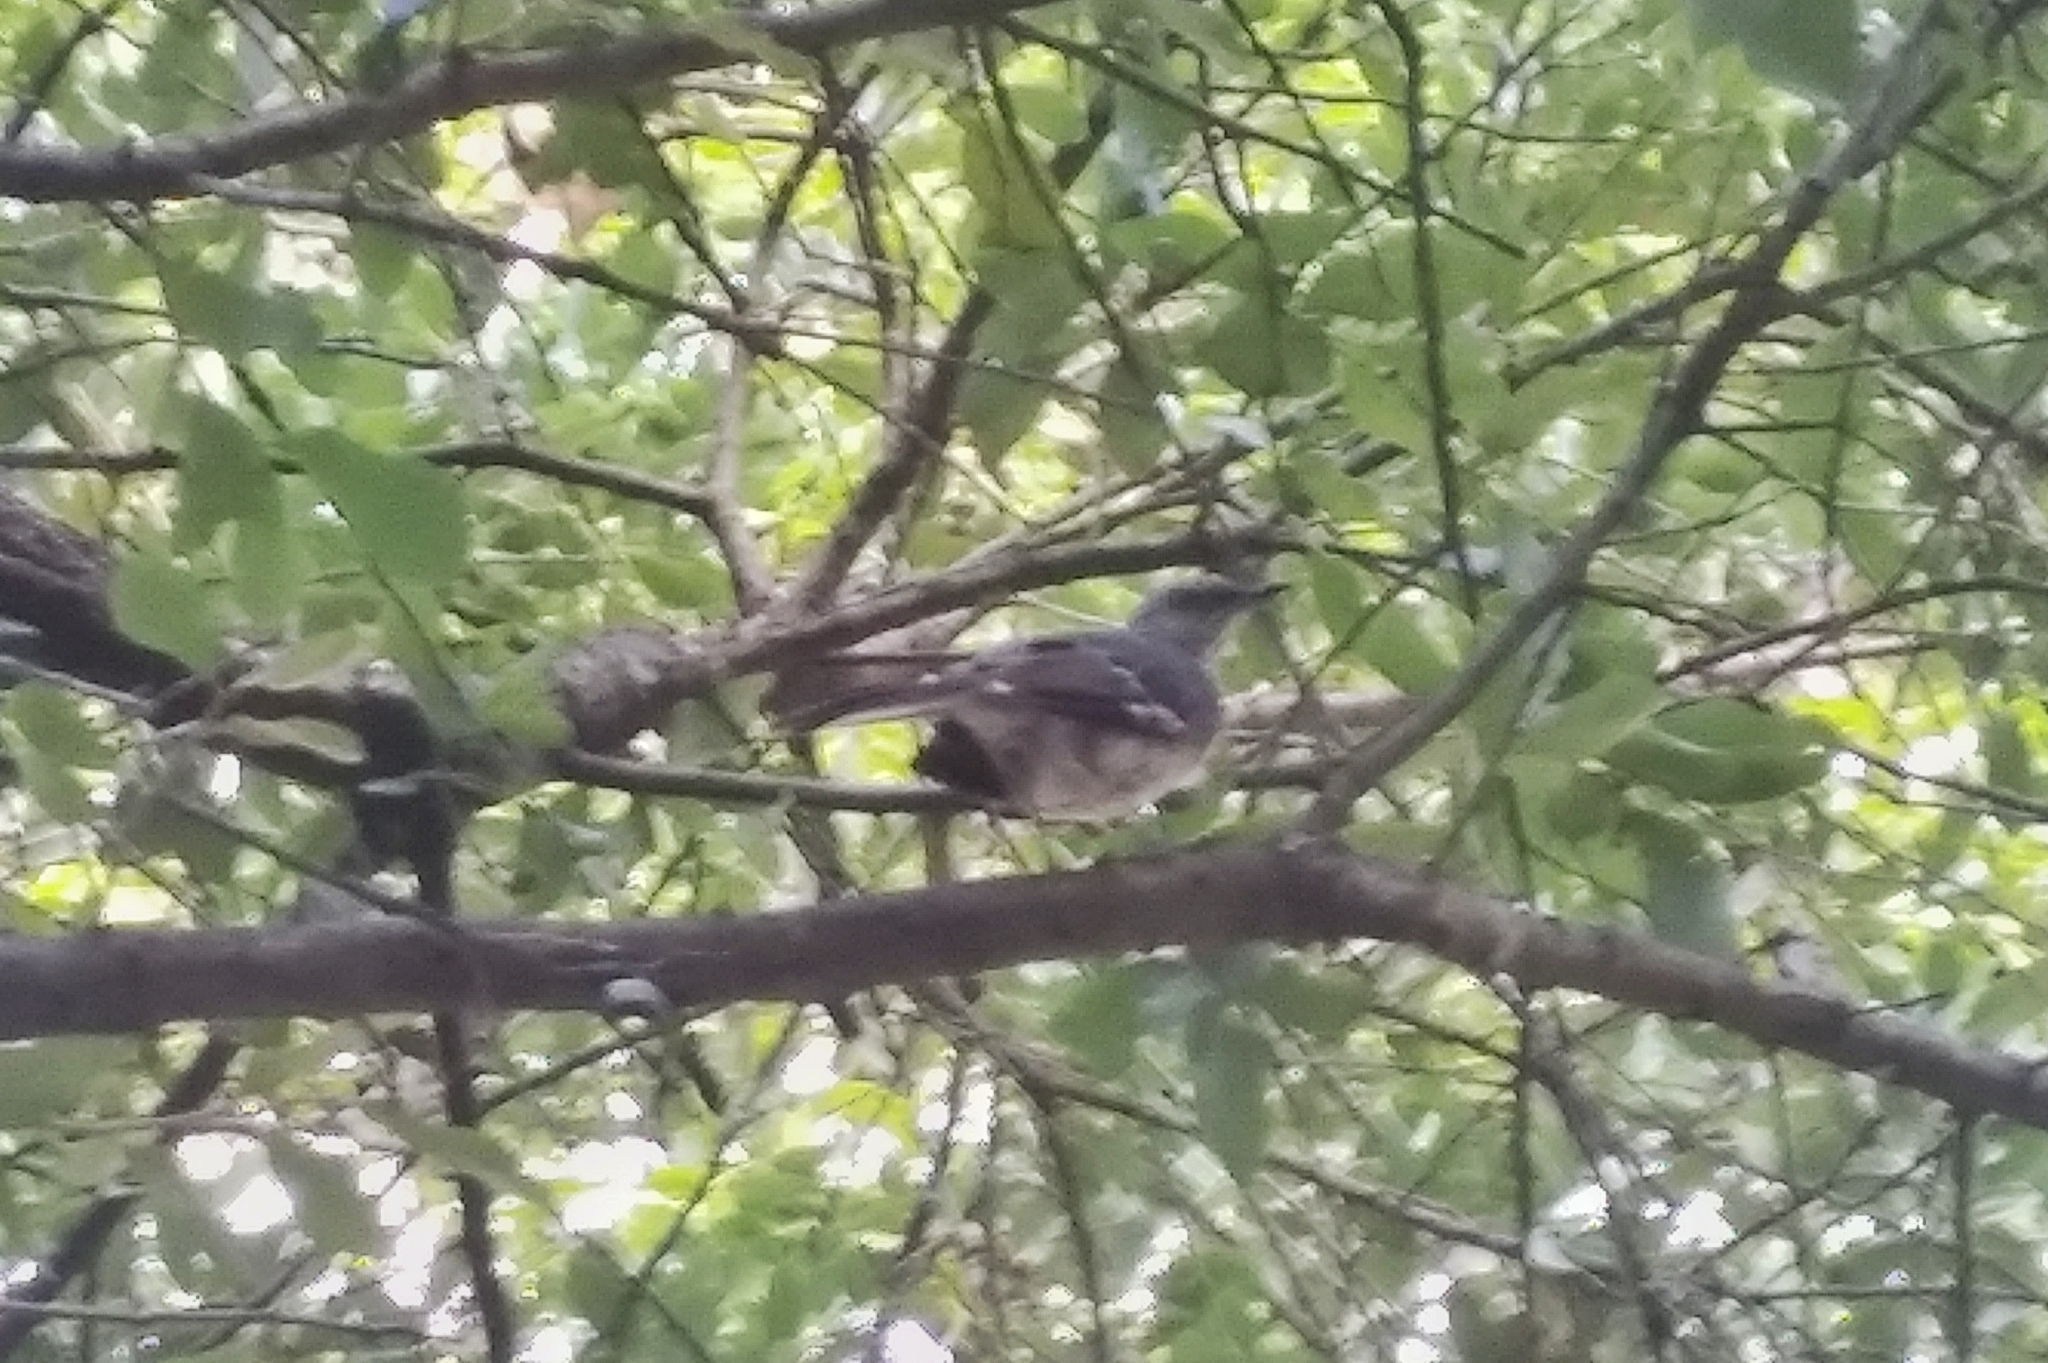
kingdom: Animalia
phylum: Chordata
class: Aves
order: Passeriformes
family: Mimidae
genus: Mimus
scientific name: Mimus polyglottos
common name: Northern mockingbird
